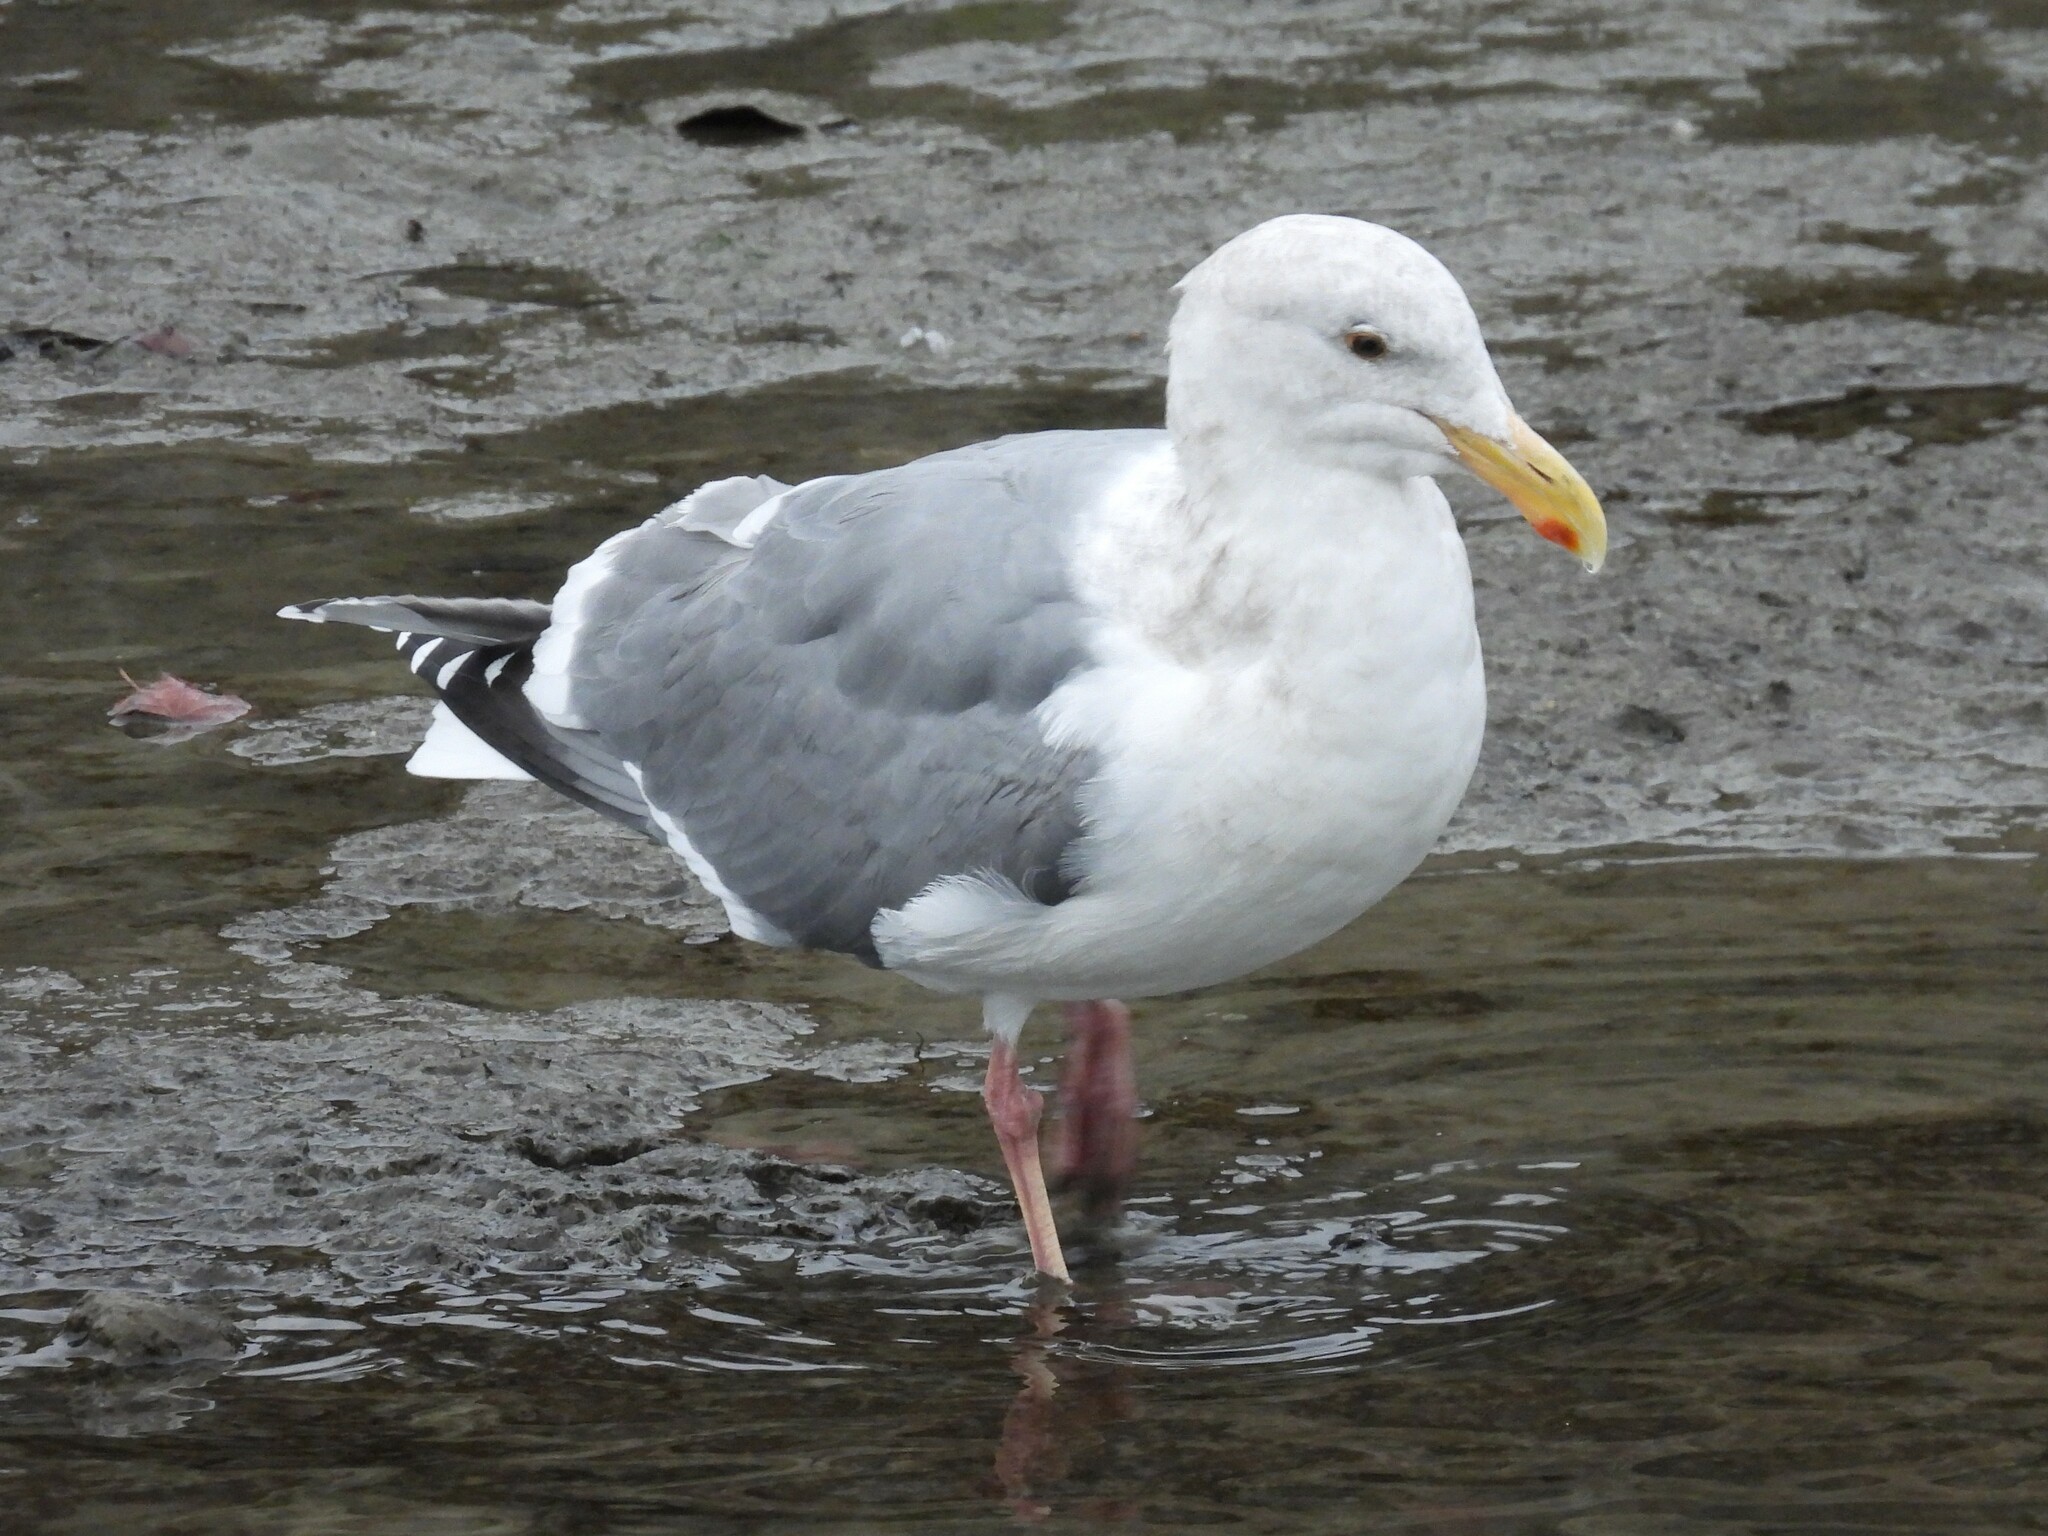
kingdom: Animalia
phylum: Chordata
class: Aves
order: Charadriiformes
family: Laridae
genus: Larus
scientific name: Larus occidentalis
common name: Western gull
